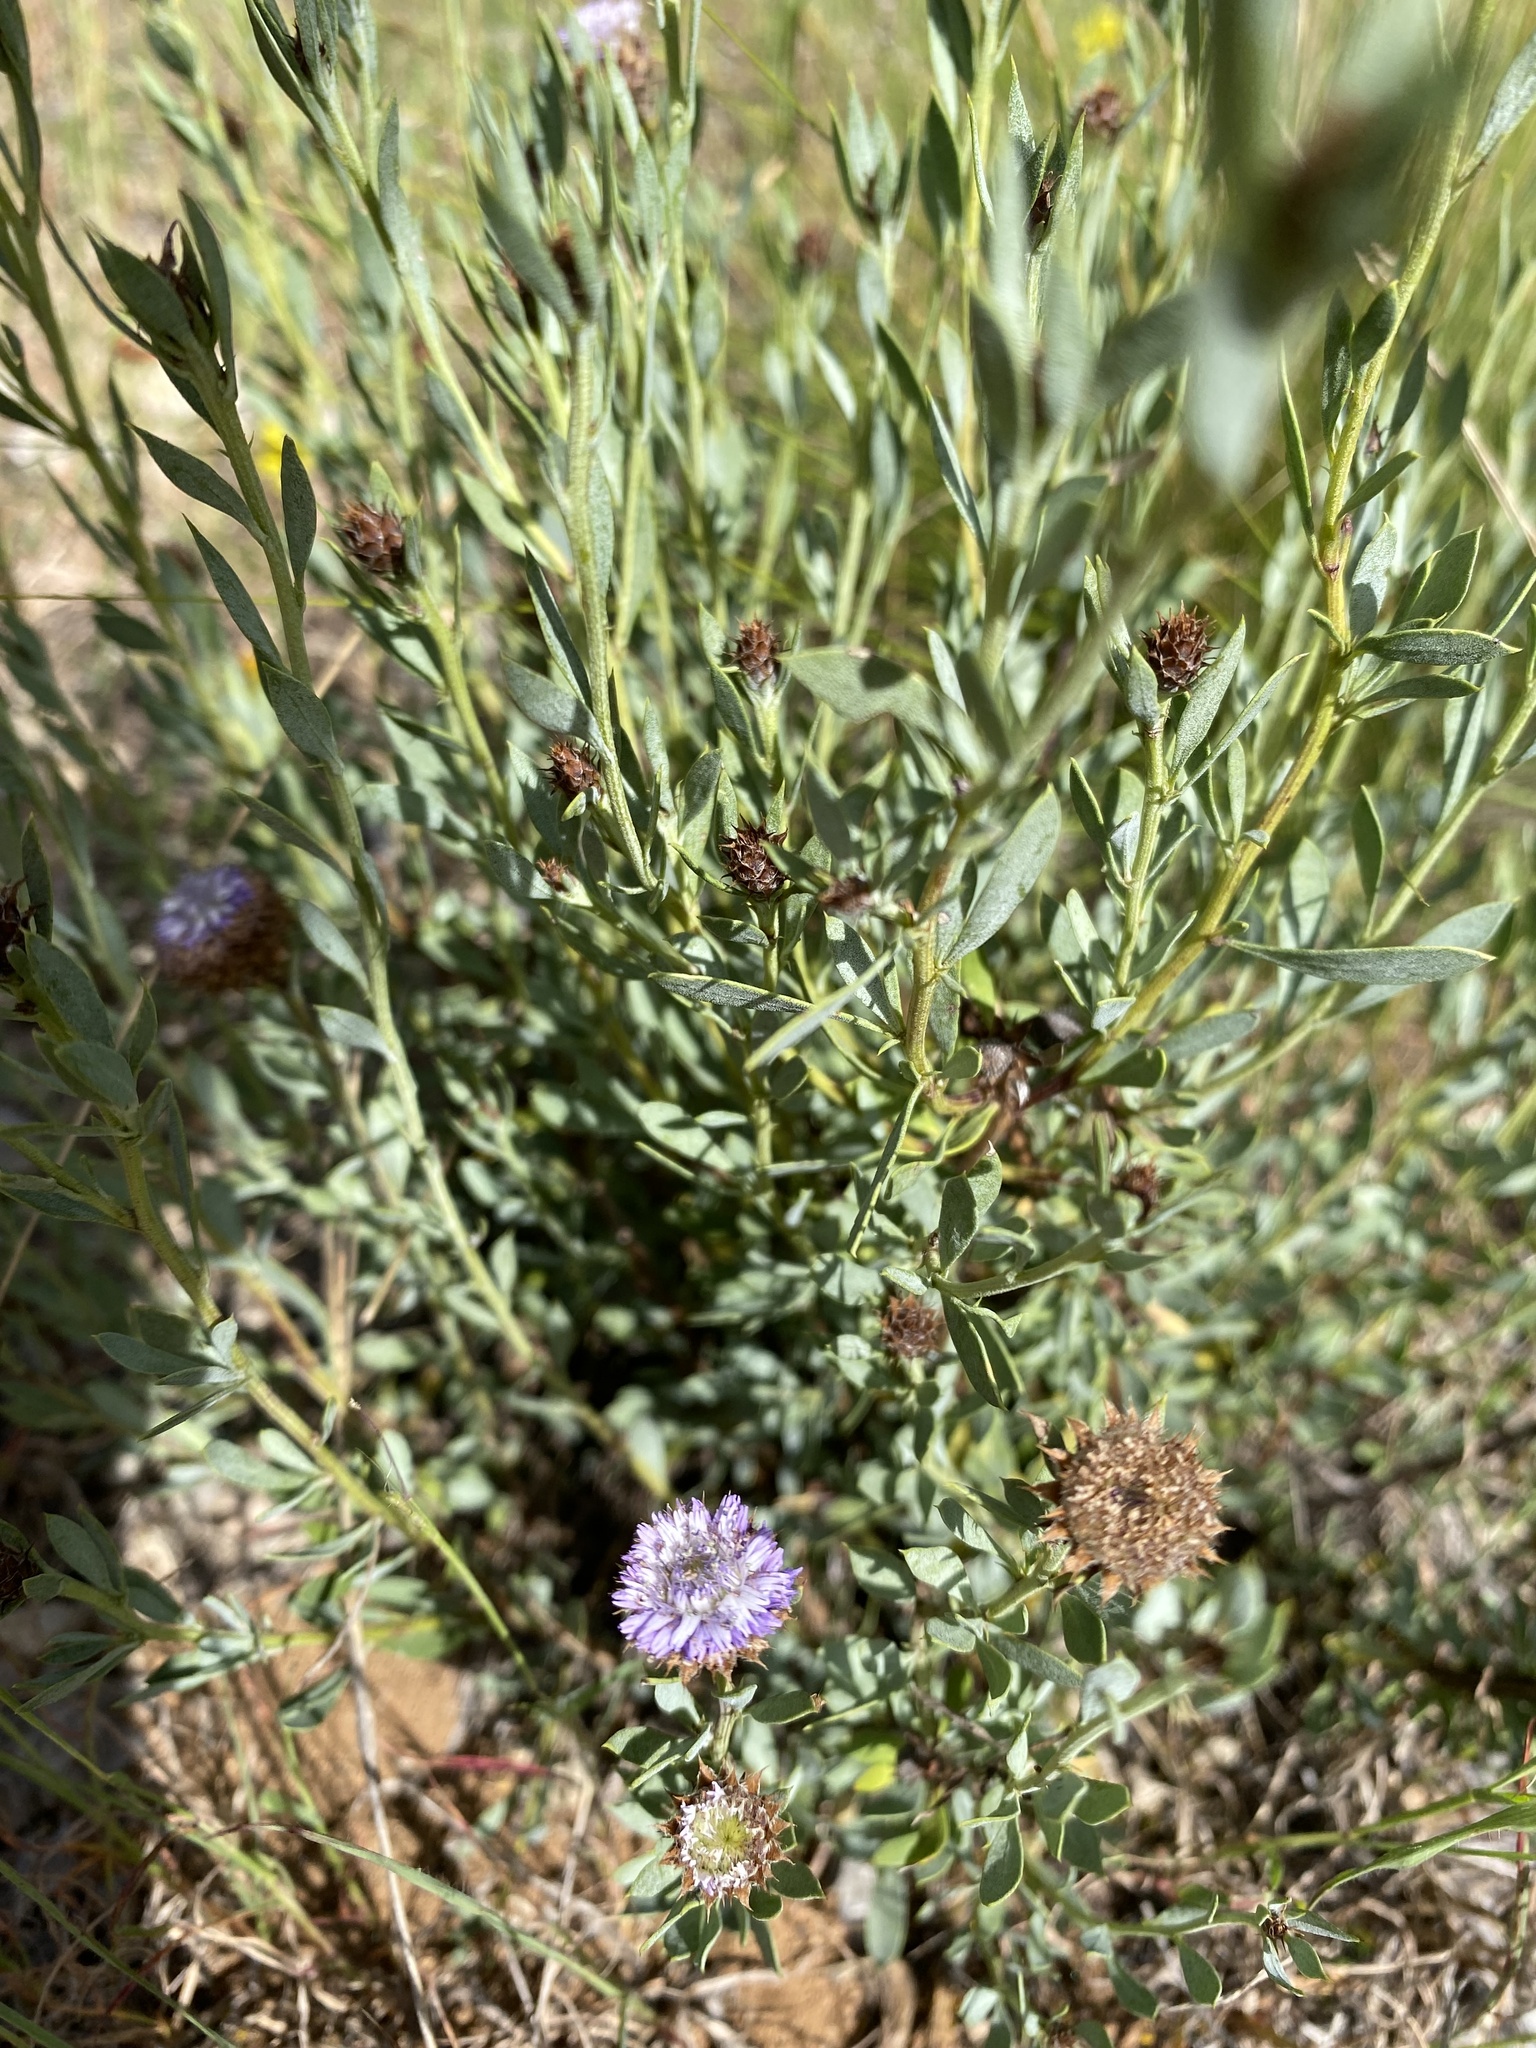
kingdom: Plantae
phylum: Tracheophyta
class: Magnoliopsida
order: Lamiales
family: Plantaginaceae
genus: Globularia
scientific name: Globularia alypum
